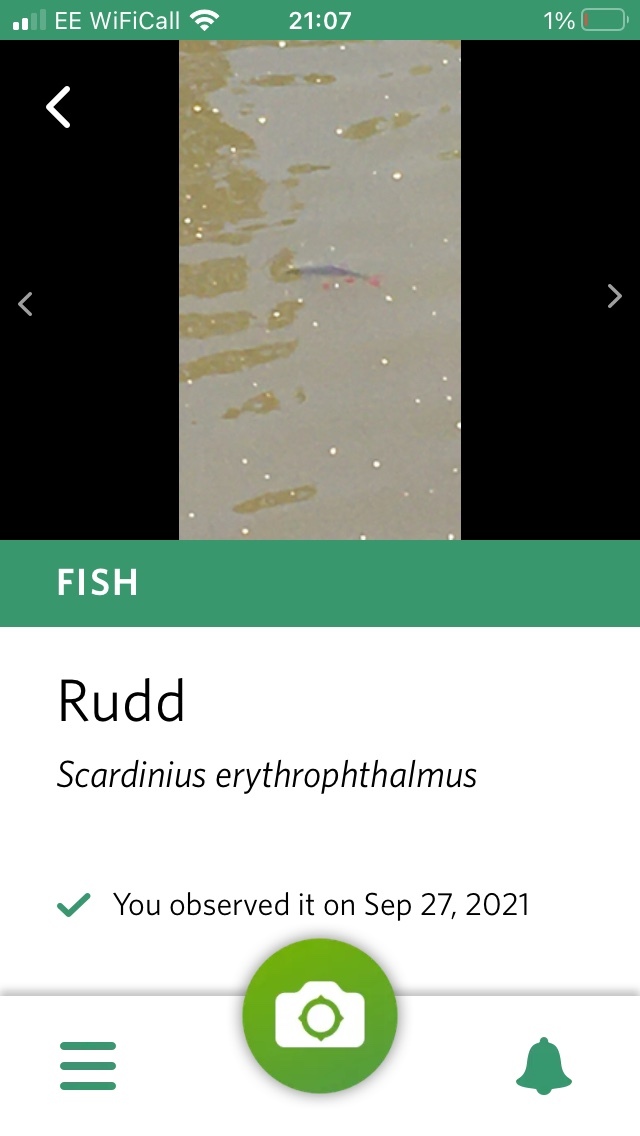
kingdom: Animalia
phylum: Chordata
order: Cypriniformes
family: Cyprinidae
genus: Scardinius
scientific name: Scardinius erythrophthalmus
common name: Rudd
